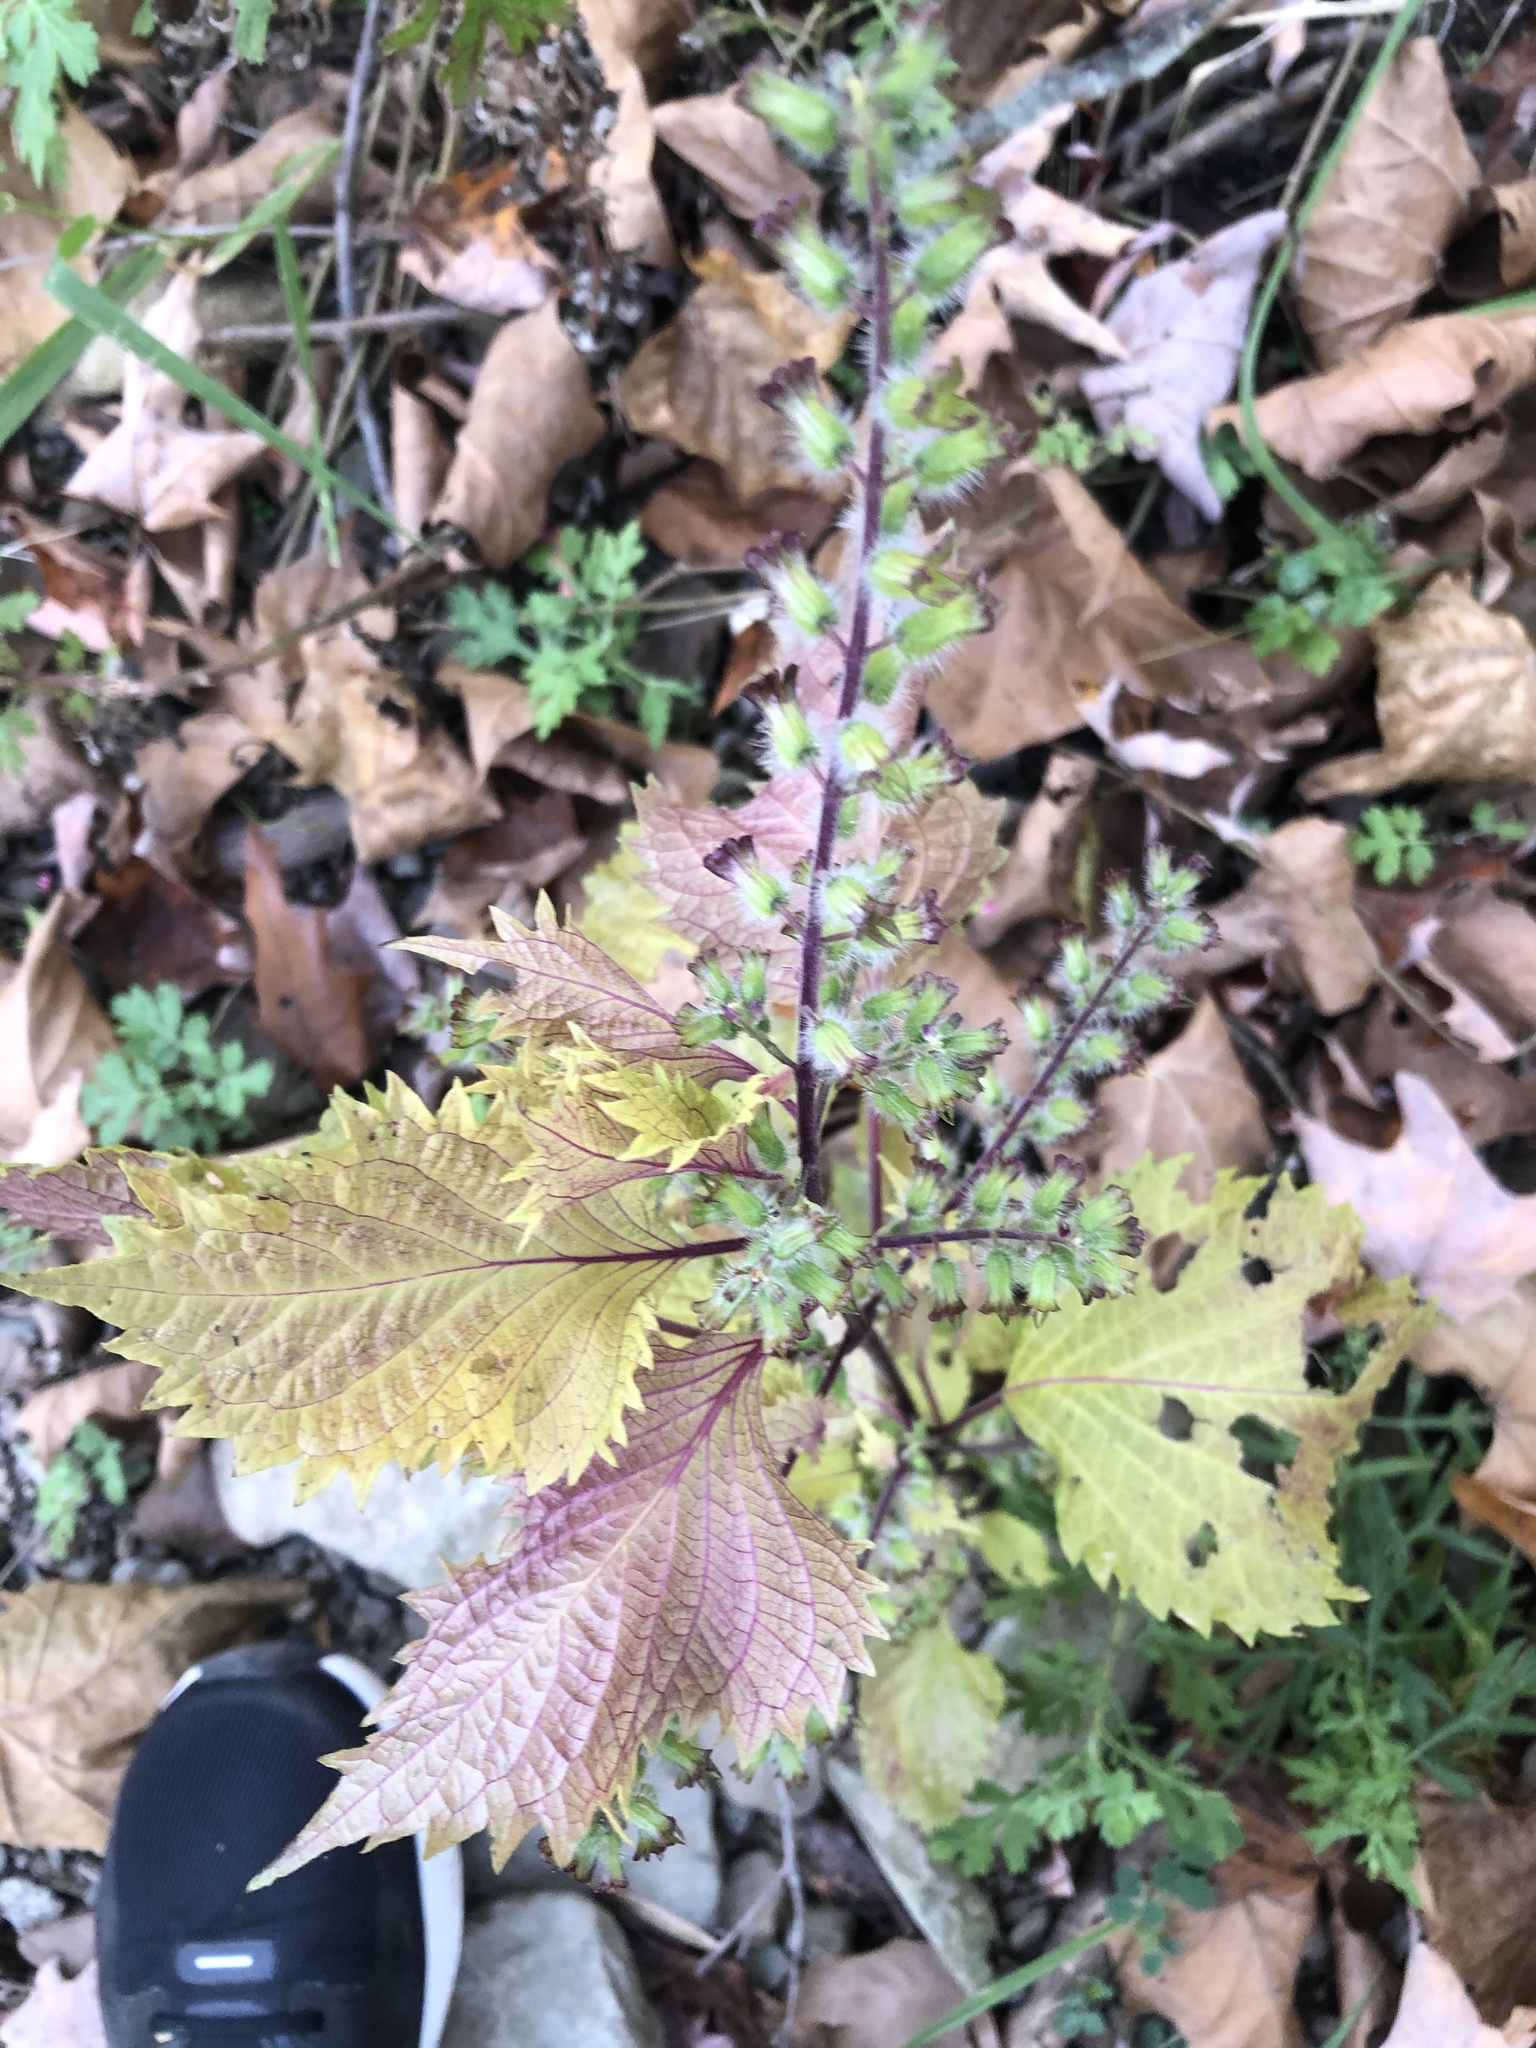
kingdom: Plantae
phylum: Tracheophyta
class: Magnoliopsida
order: Lamiales
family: Lamiaceae
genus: Perilla
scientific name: Perilla frutescens
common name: Perilla
